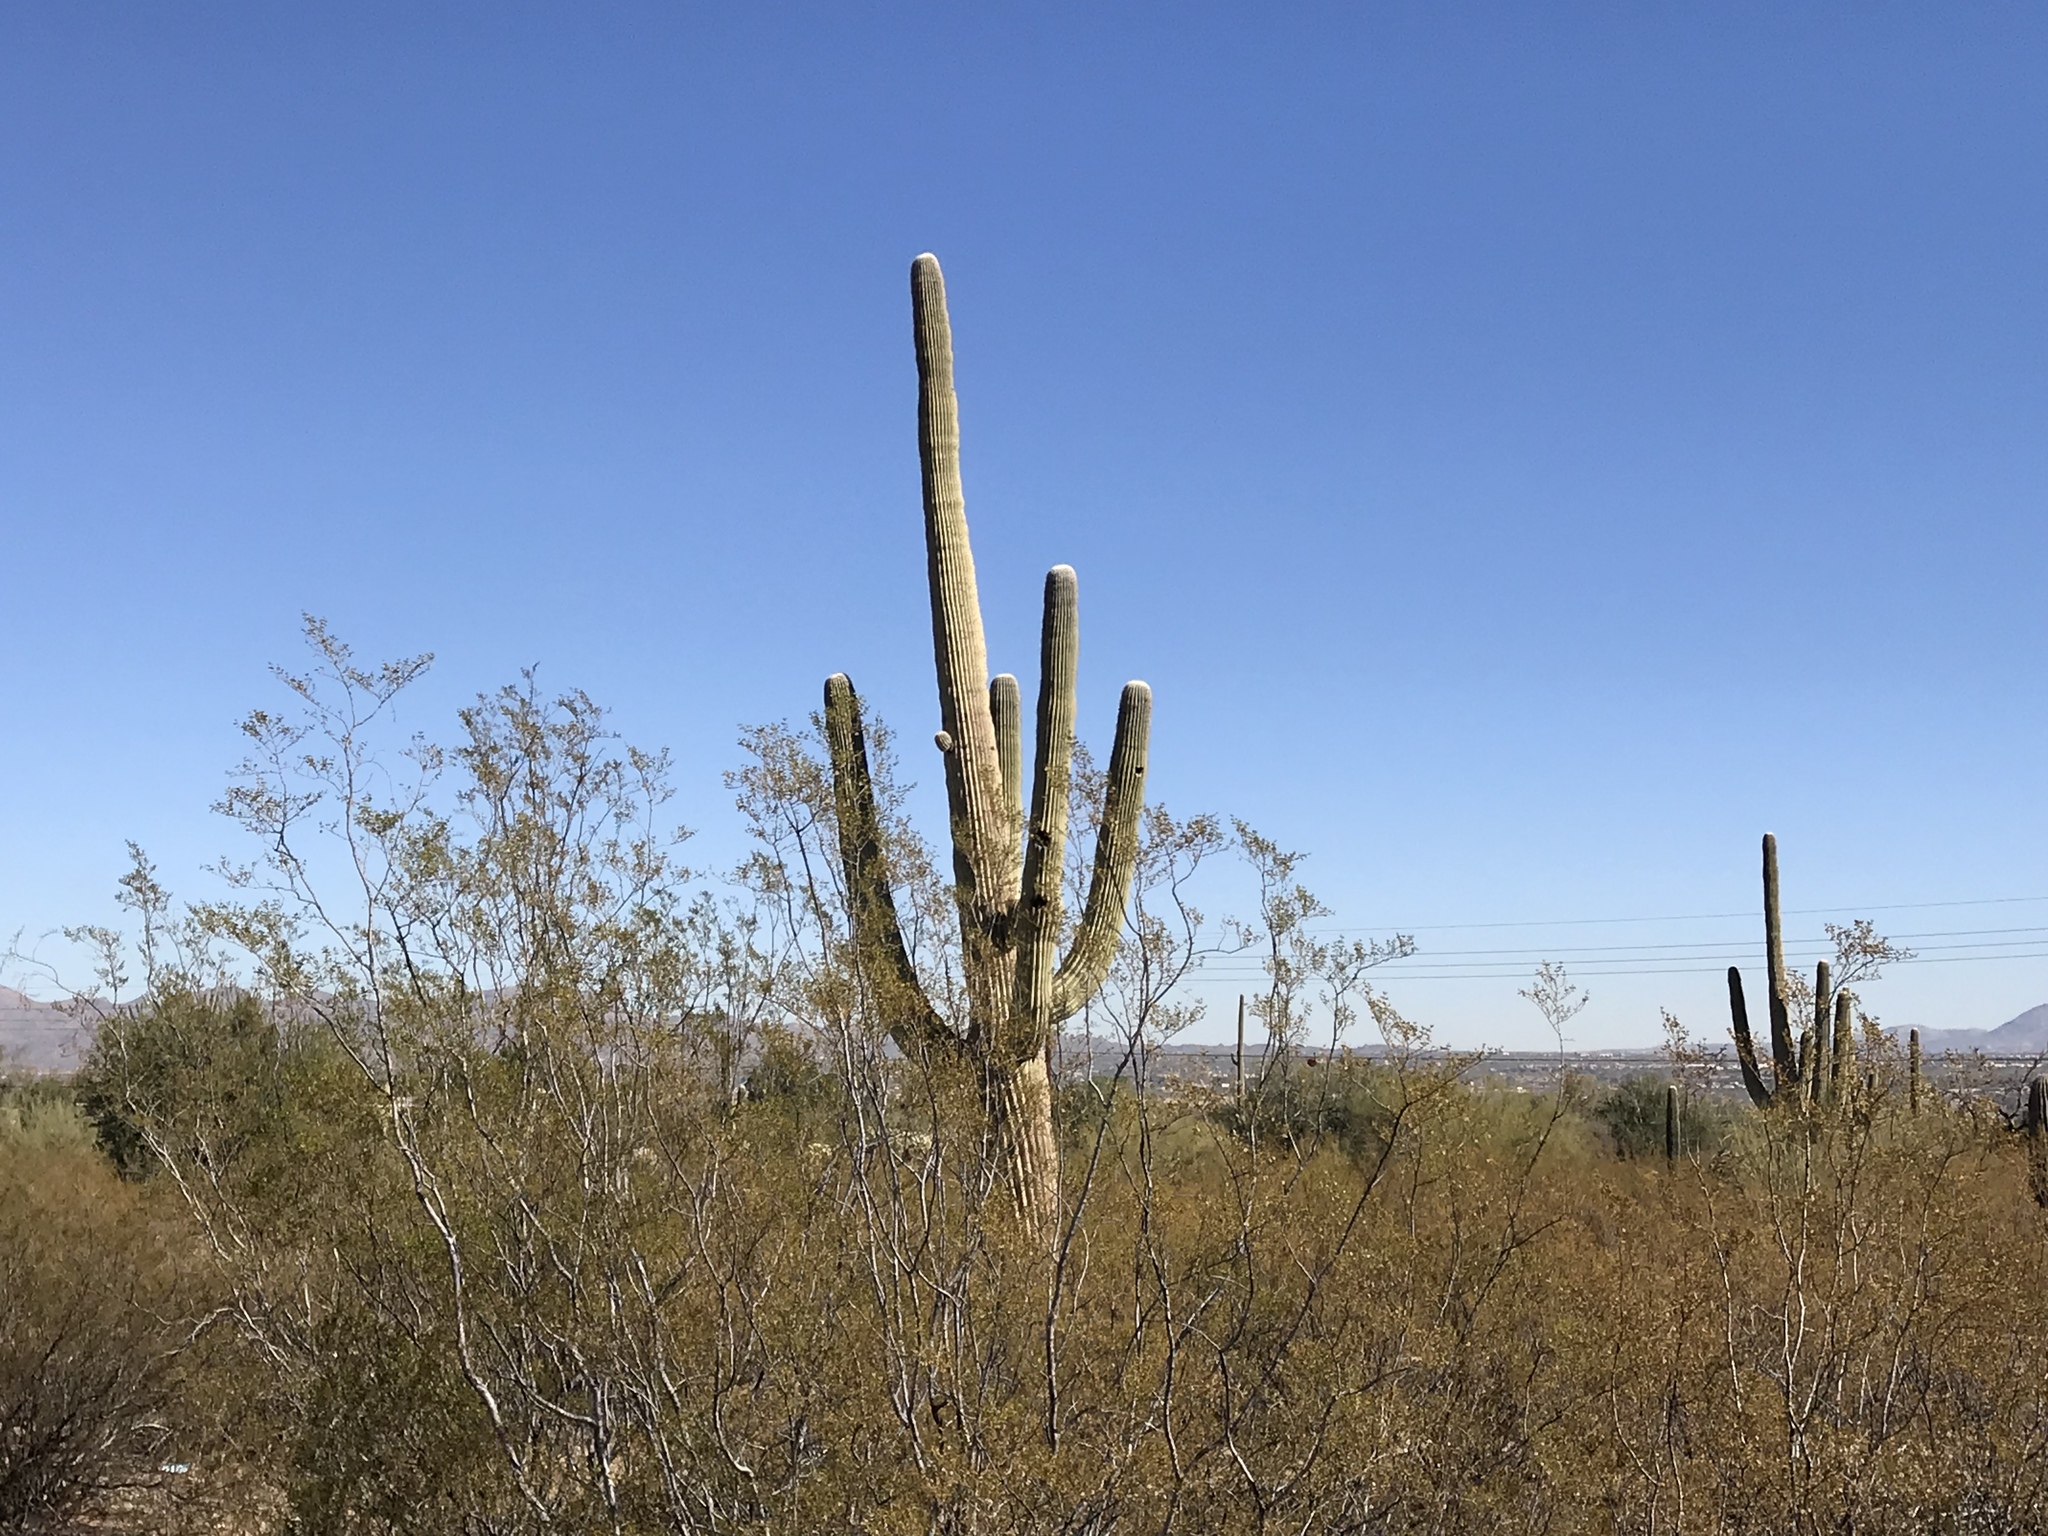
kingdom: Plantae
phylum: Tracheophyta
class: Magnoliopsida
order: Caryophyllales
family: Cactaceae
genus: Carnegiea
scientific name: Carnegiea gigantea
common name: Saguaro
